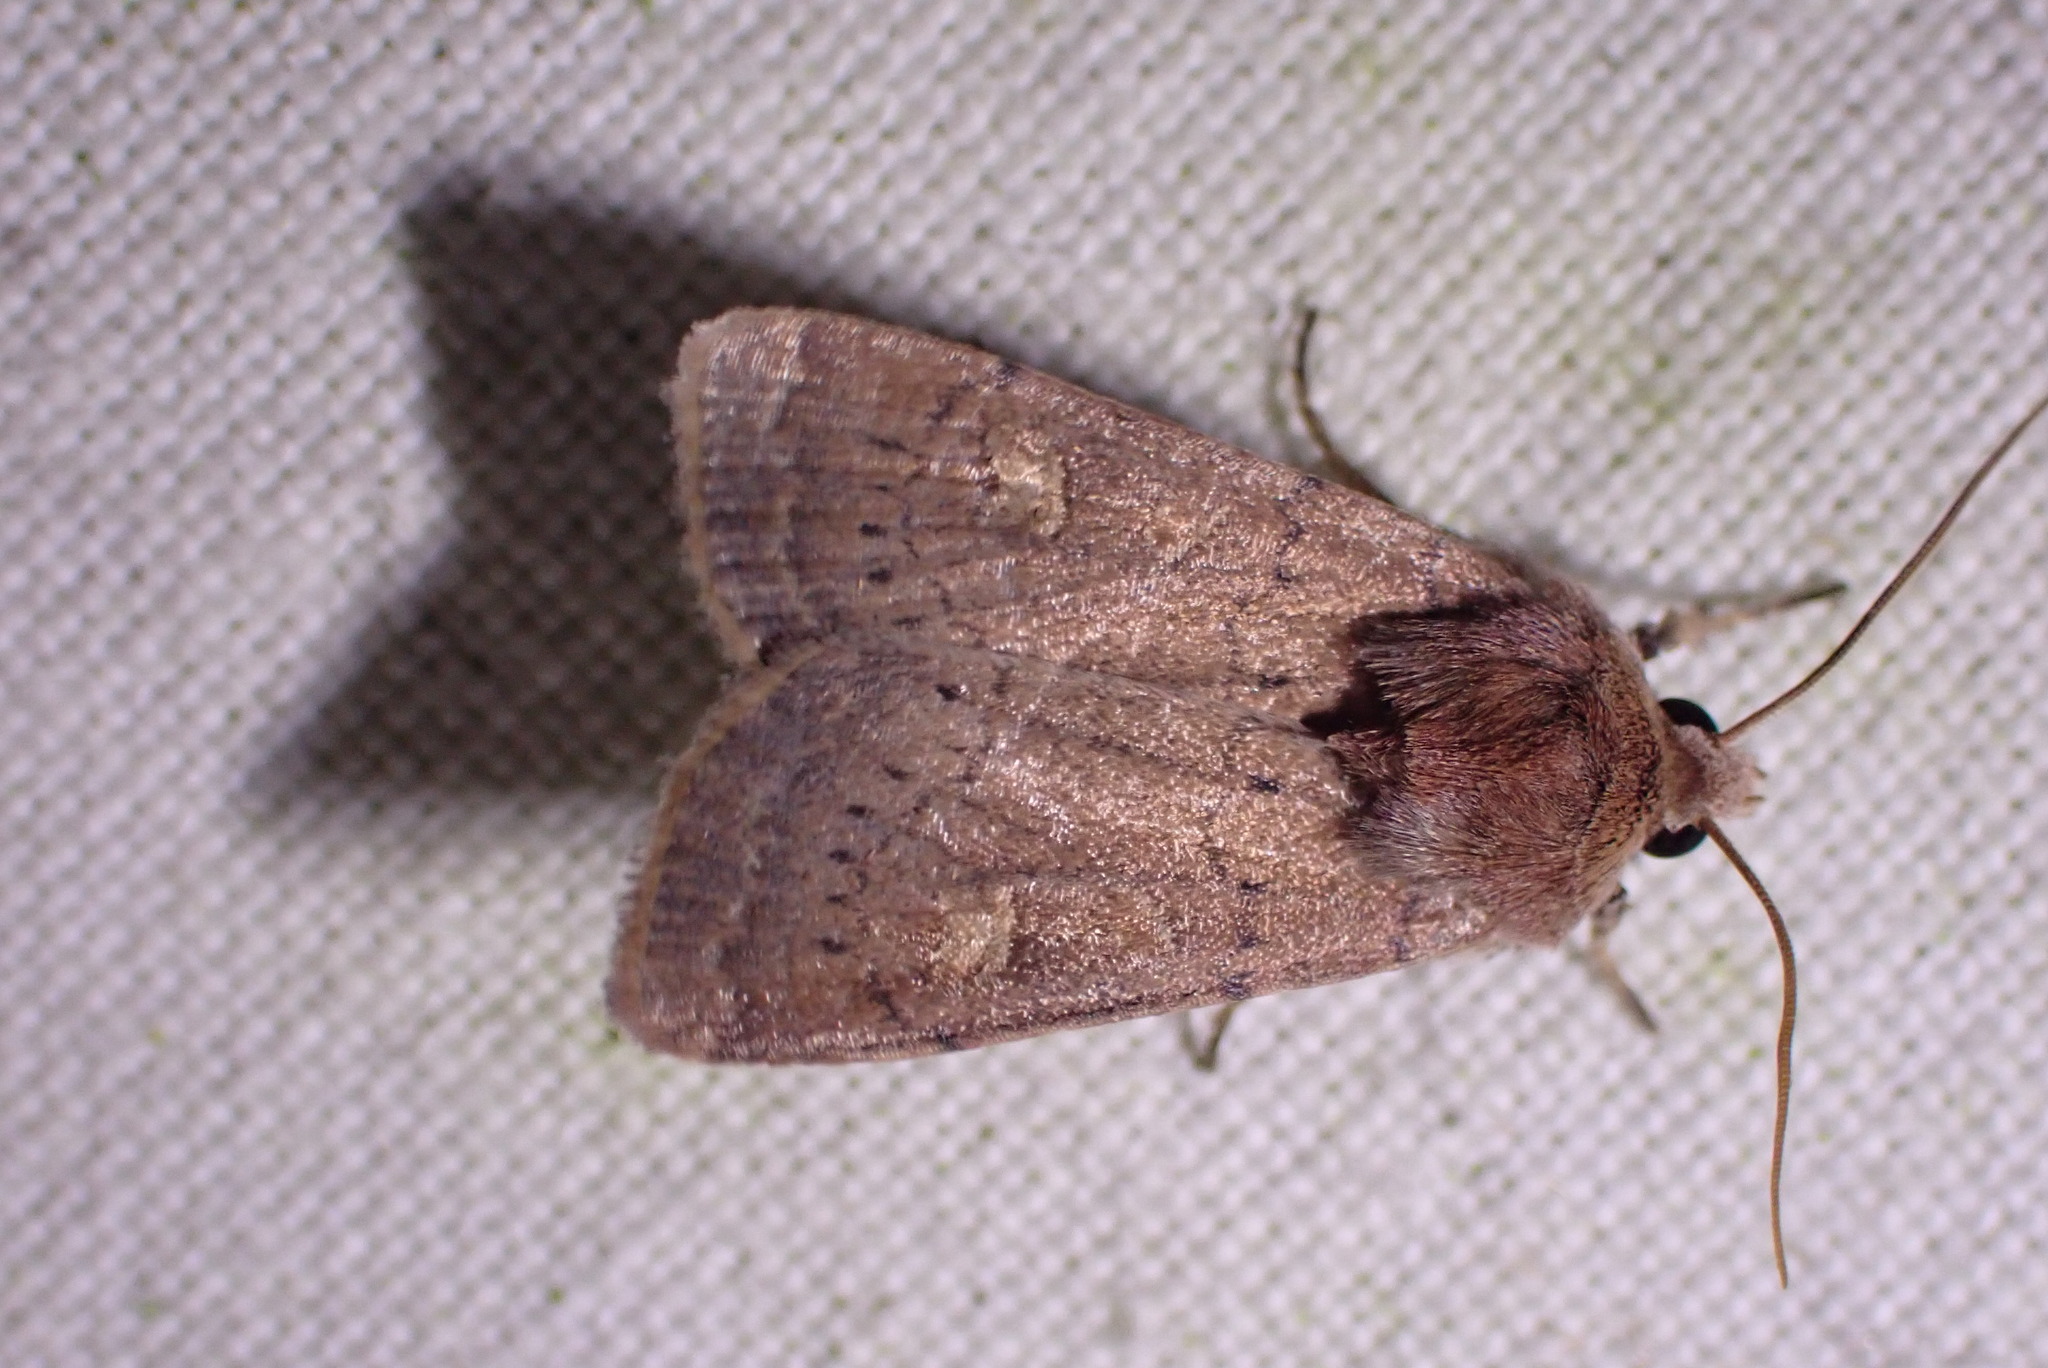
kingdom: Animalia
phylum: Arthropoda
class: Insecta
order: Lepidoptera
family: Noctuidae
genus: Xestia
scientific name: Xestia xanthographa
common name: Square-spot rustic
